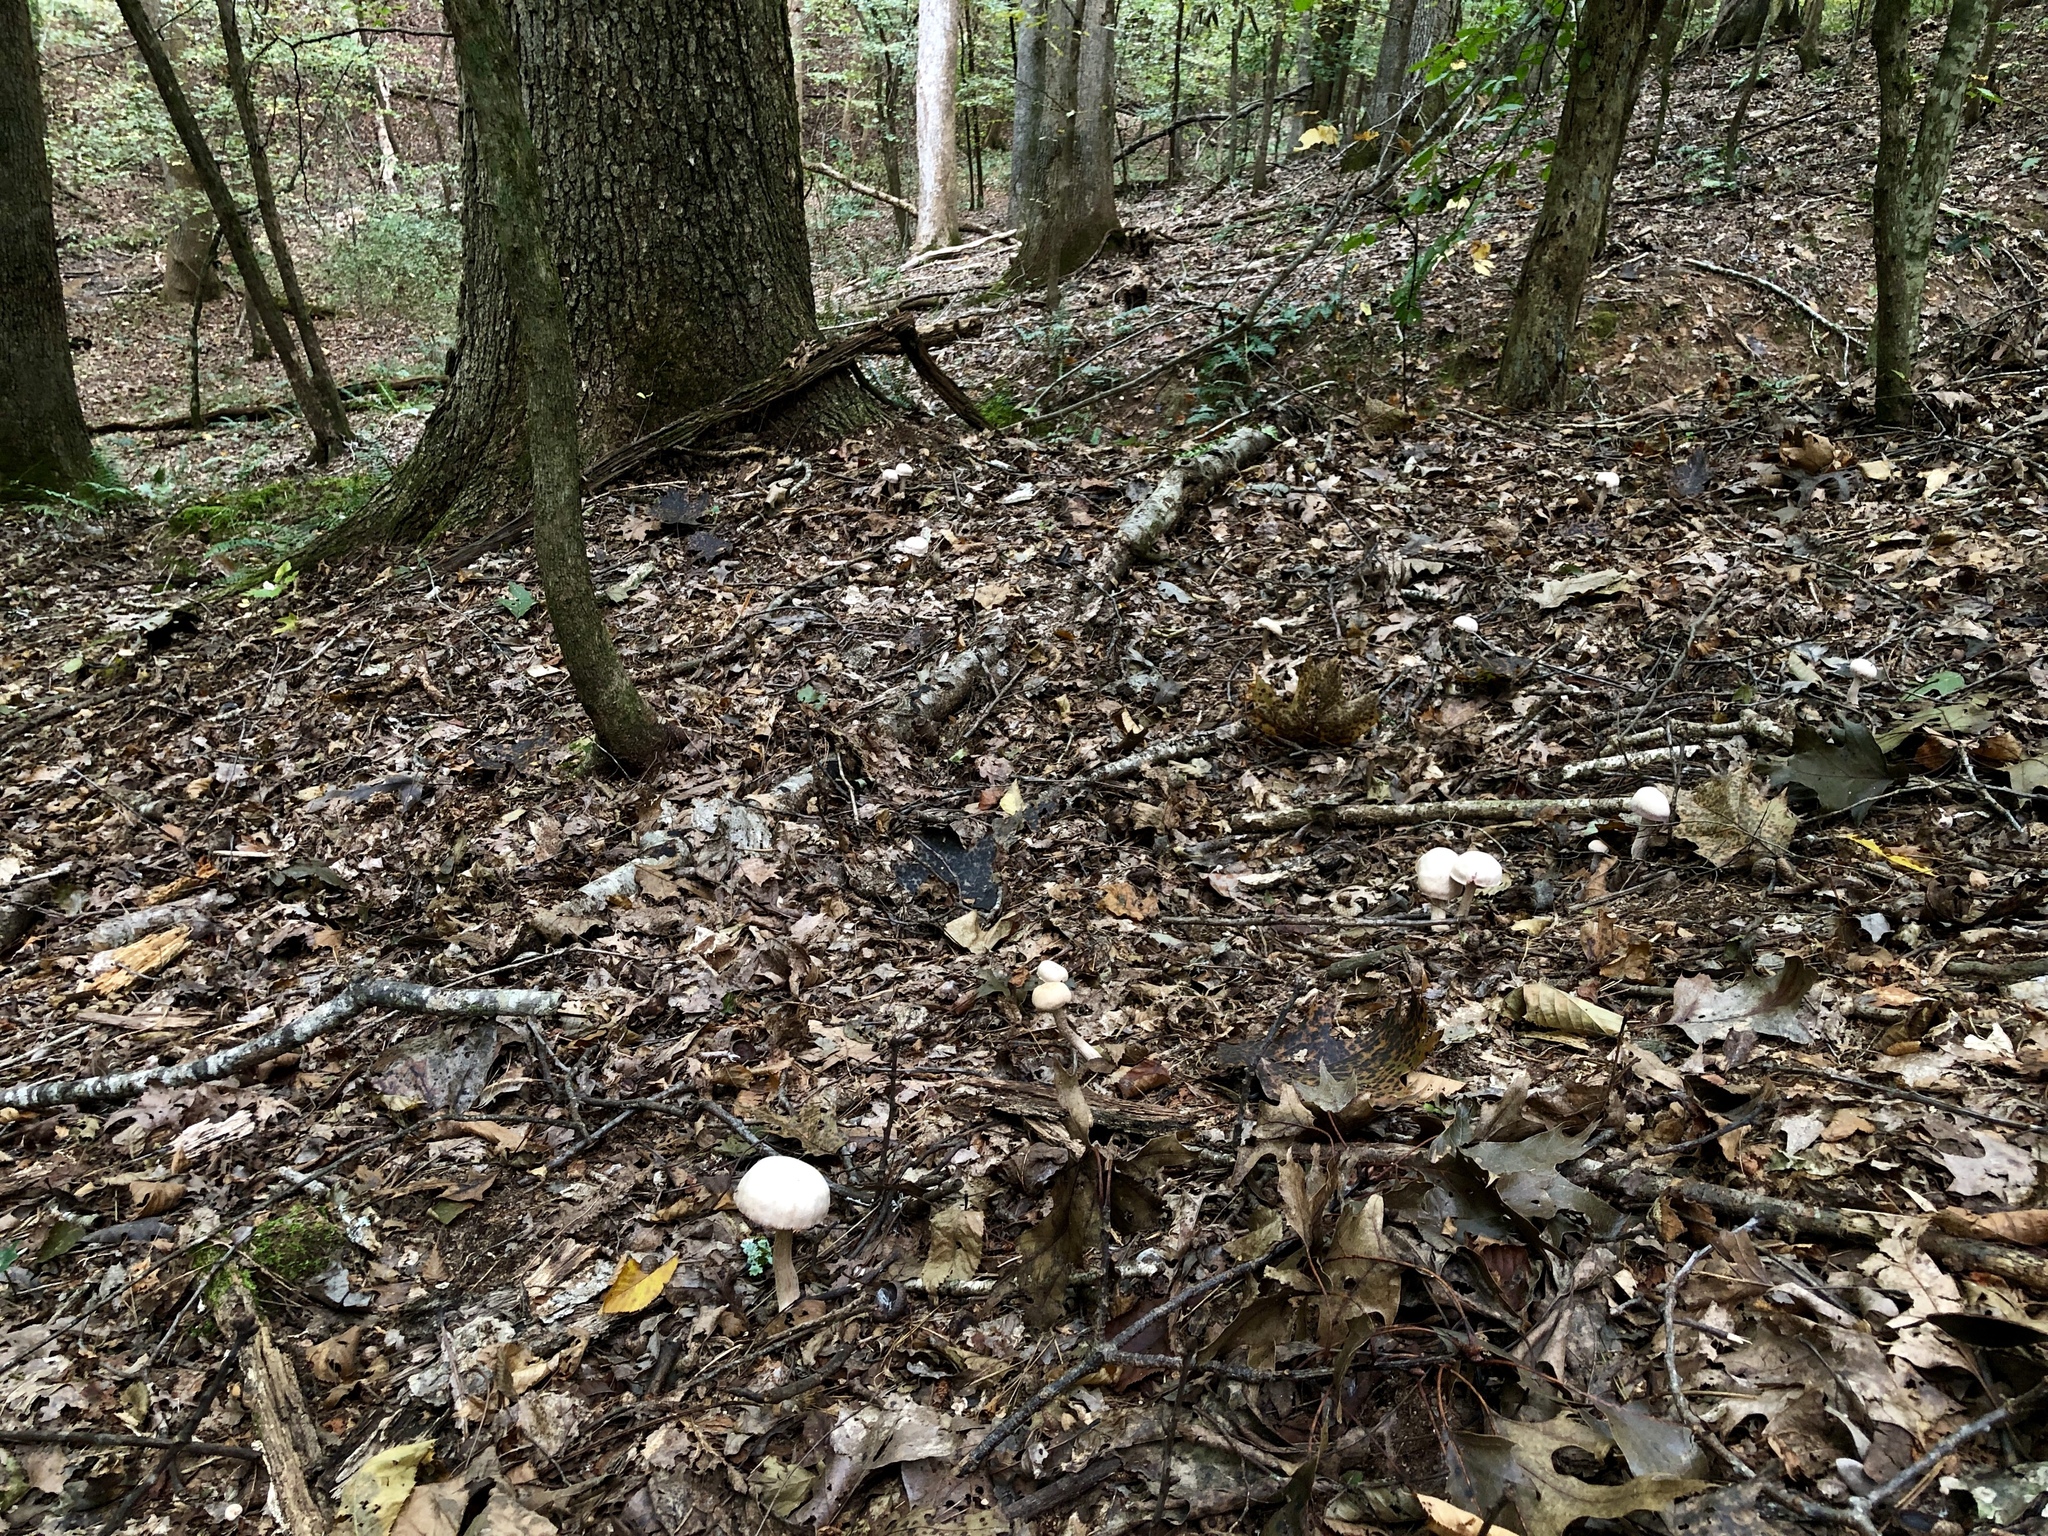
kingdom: Fungi
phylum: Basidiomycota
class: Agaricomycetes
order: Agaricales
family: Hydnangiaceae
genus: Laccaria
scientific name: Laccaria ochropurpurea
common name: Purple laccaria
